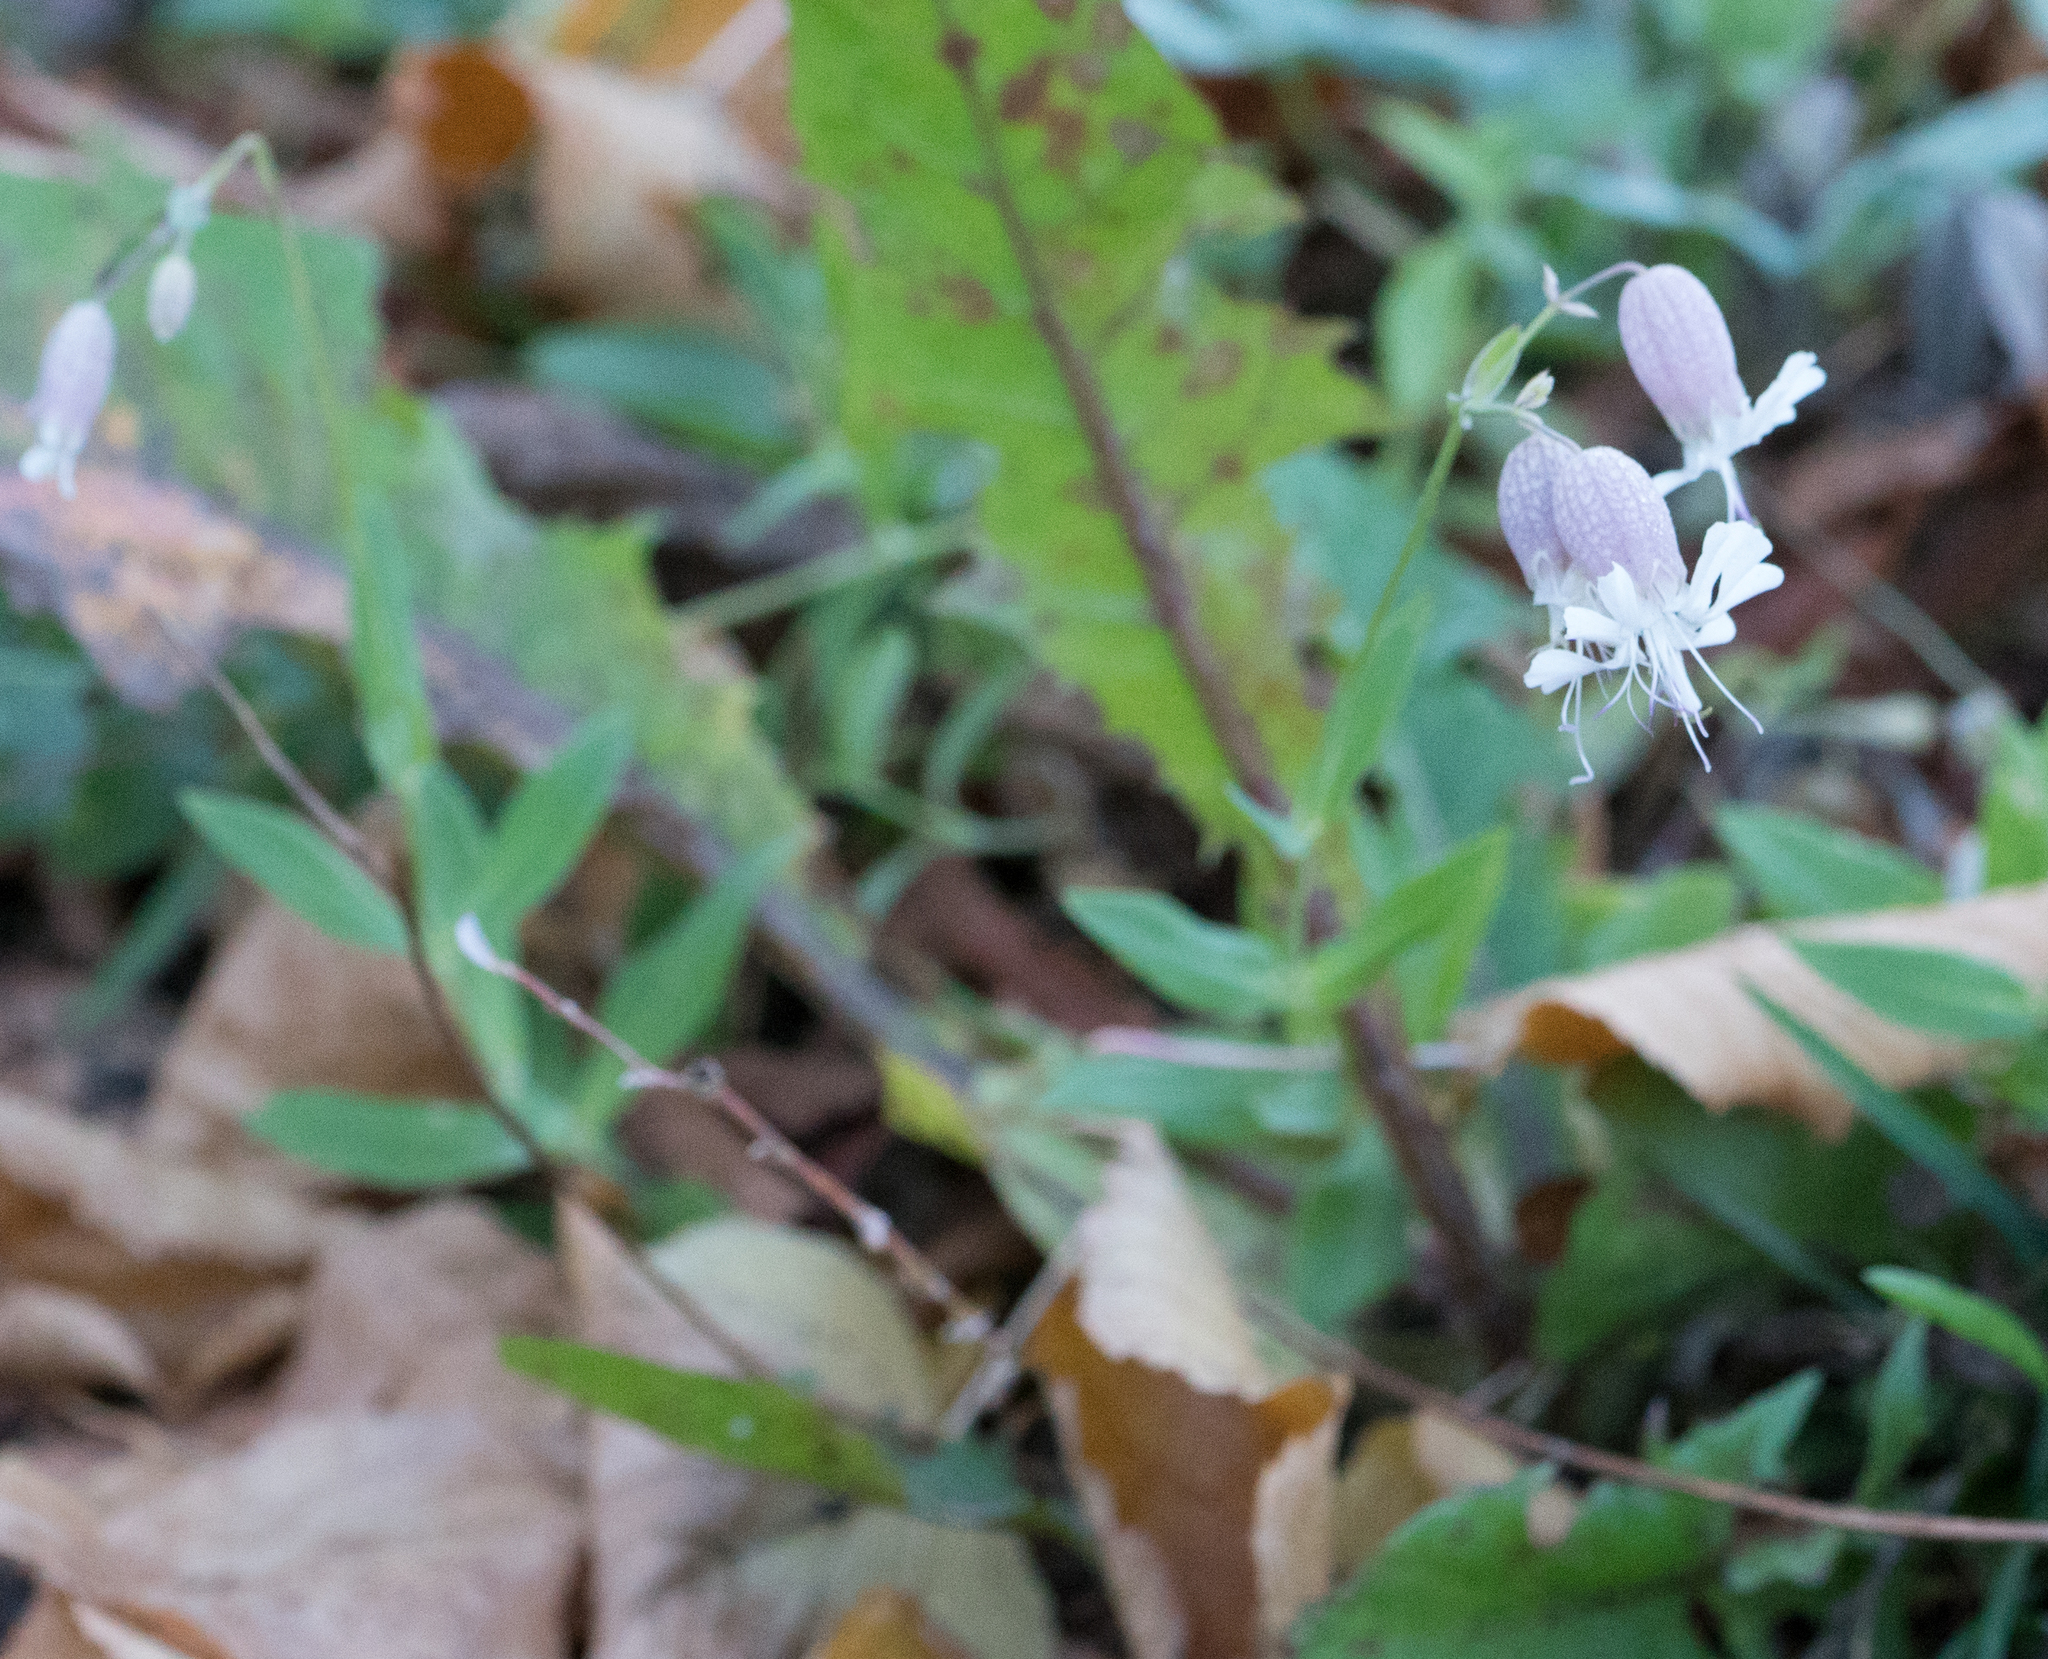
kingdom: Plantae
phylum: Tracheophyta
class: Magnoliopsida
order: Caryophyllales
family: Caryophyllaceae
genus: Silene
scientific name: Silene vulgaris
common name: Bladder campion
